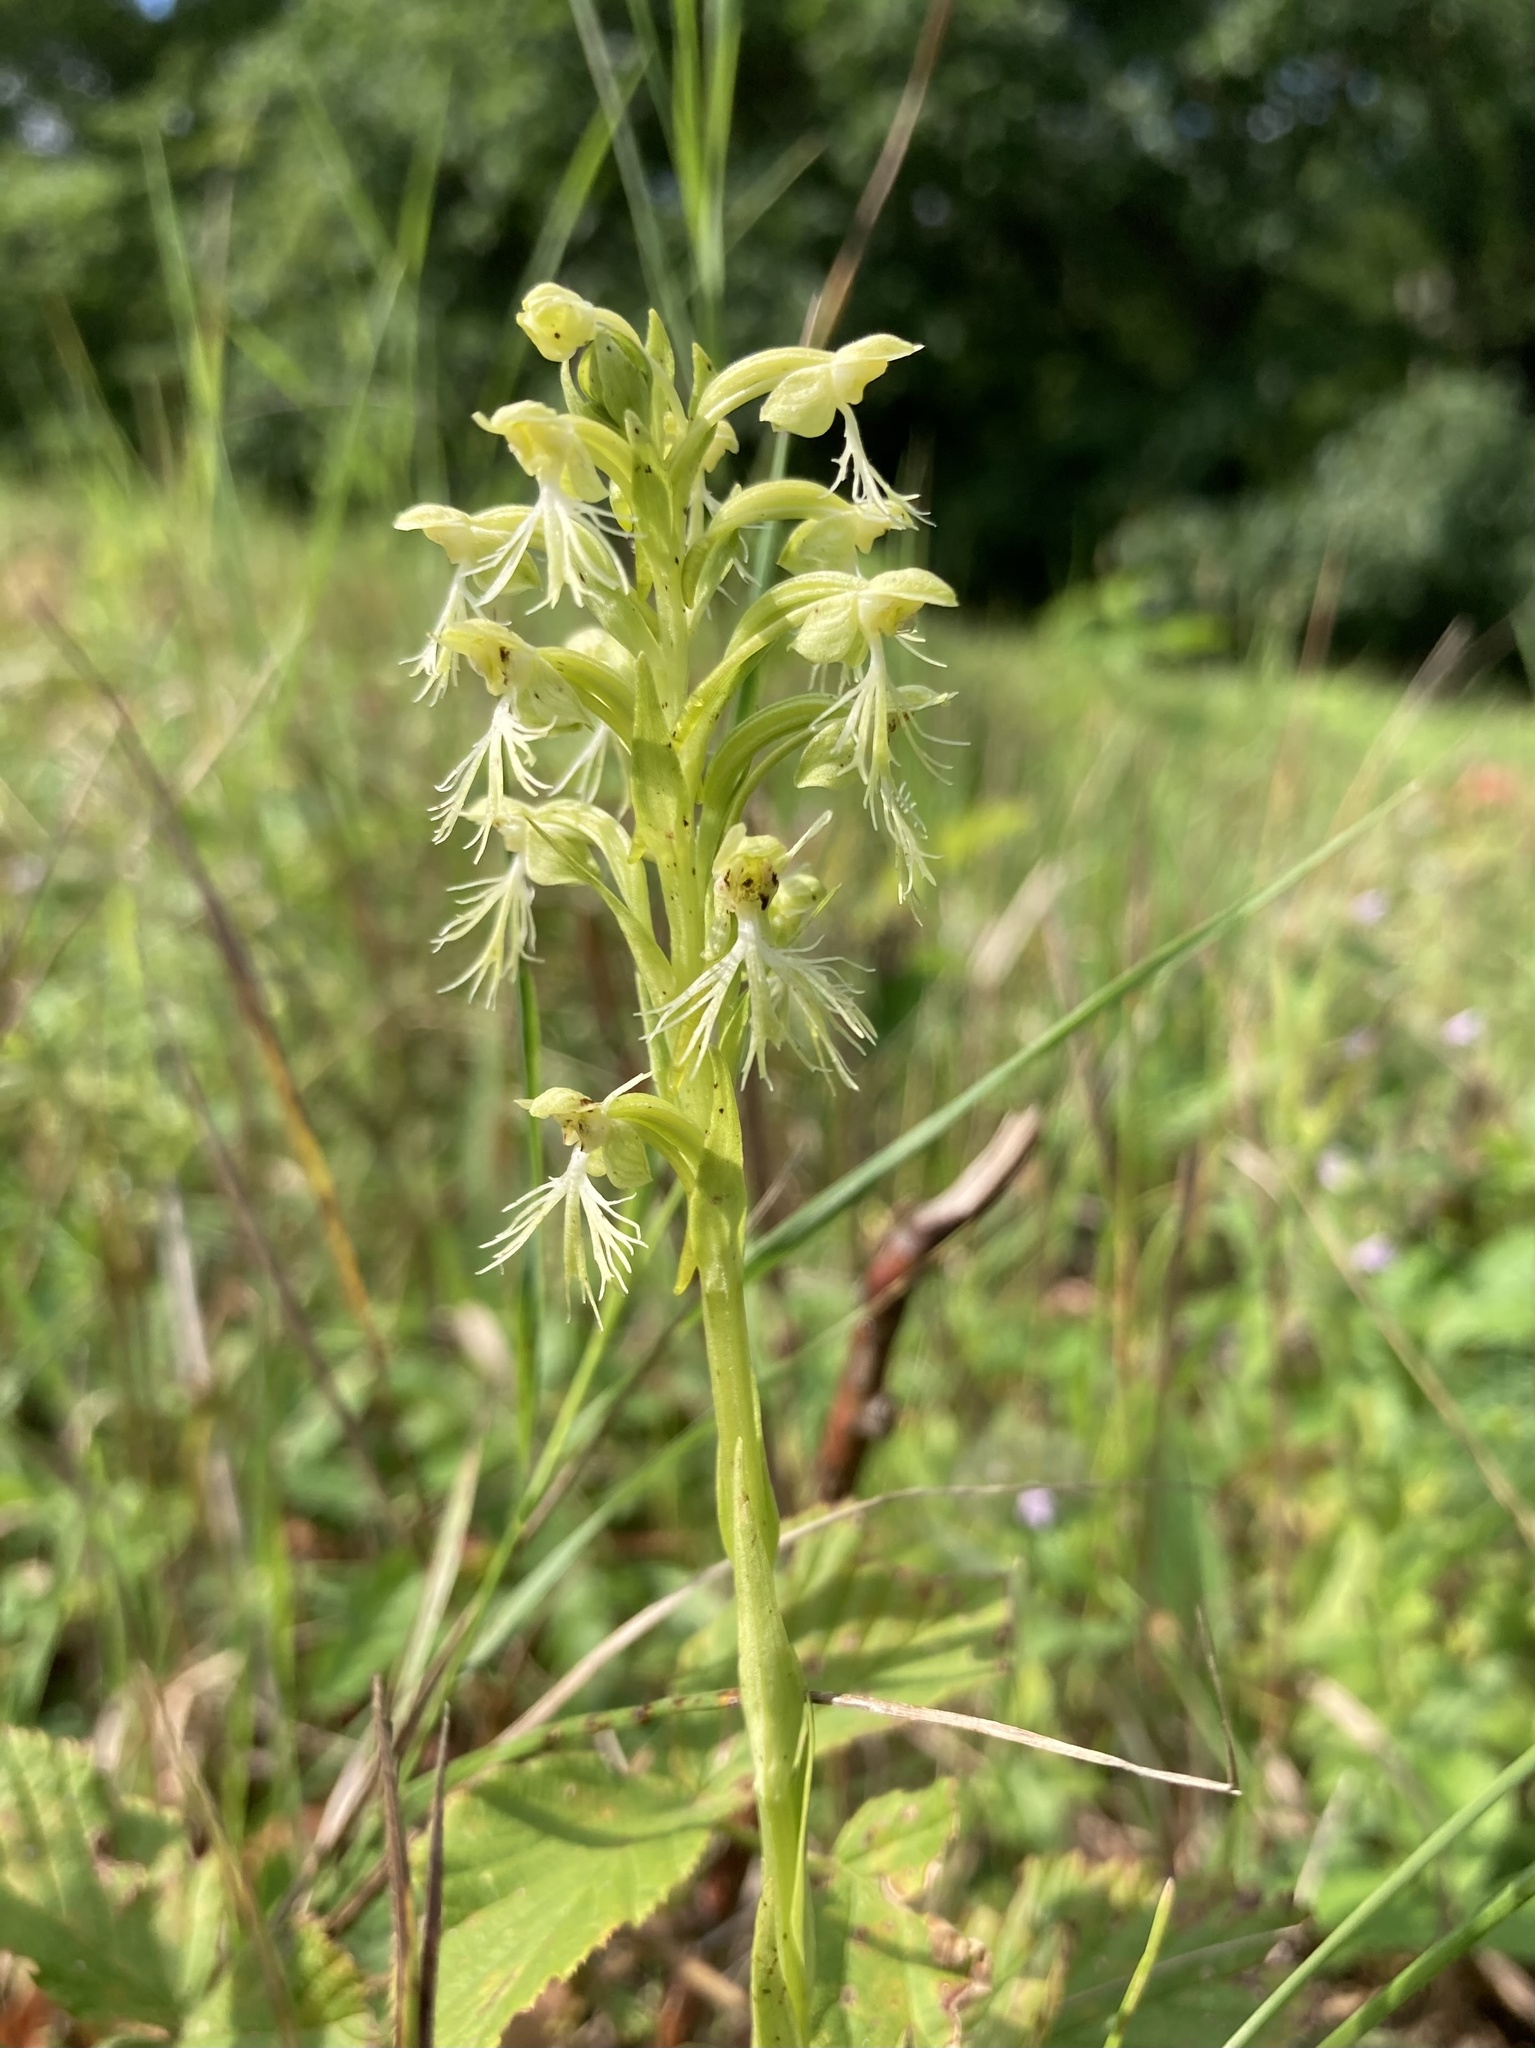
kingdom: Plantae
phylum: Tracheophyta
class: Liliopsida
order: Asparagales
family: Orchidaceae
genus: Platanthera
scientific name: Platanthera lacera
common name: Green fringed orchid
